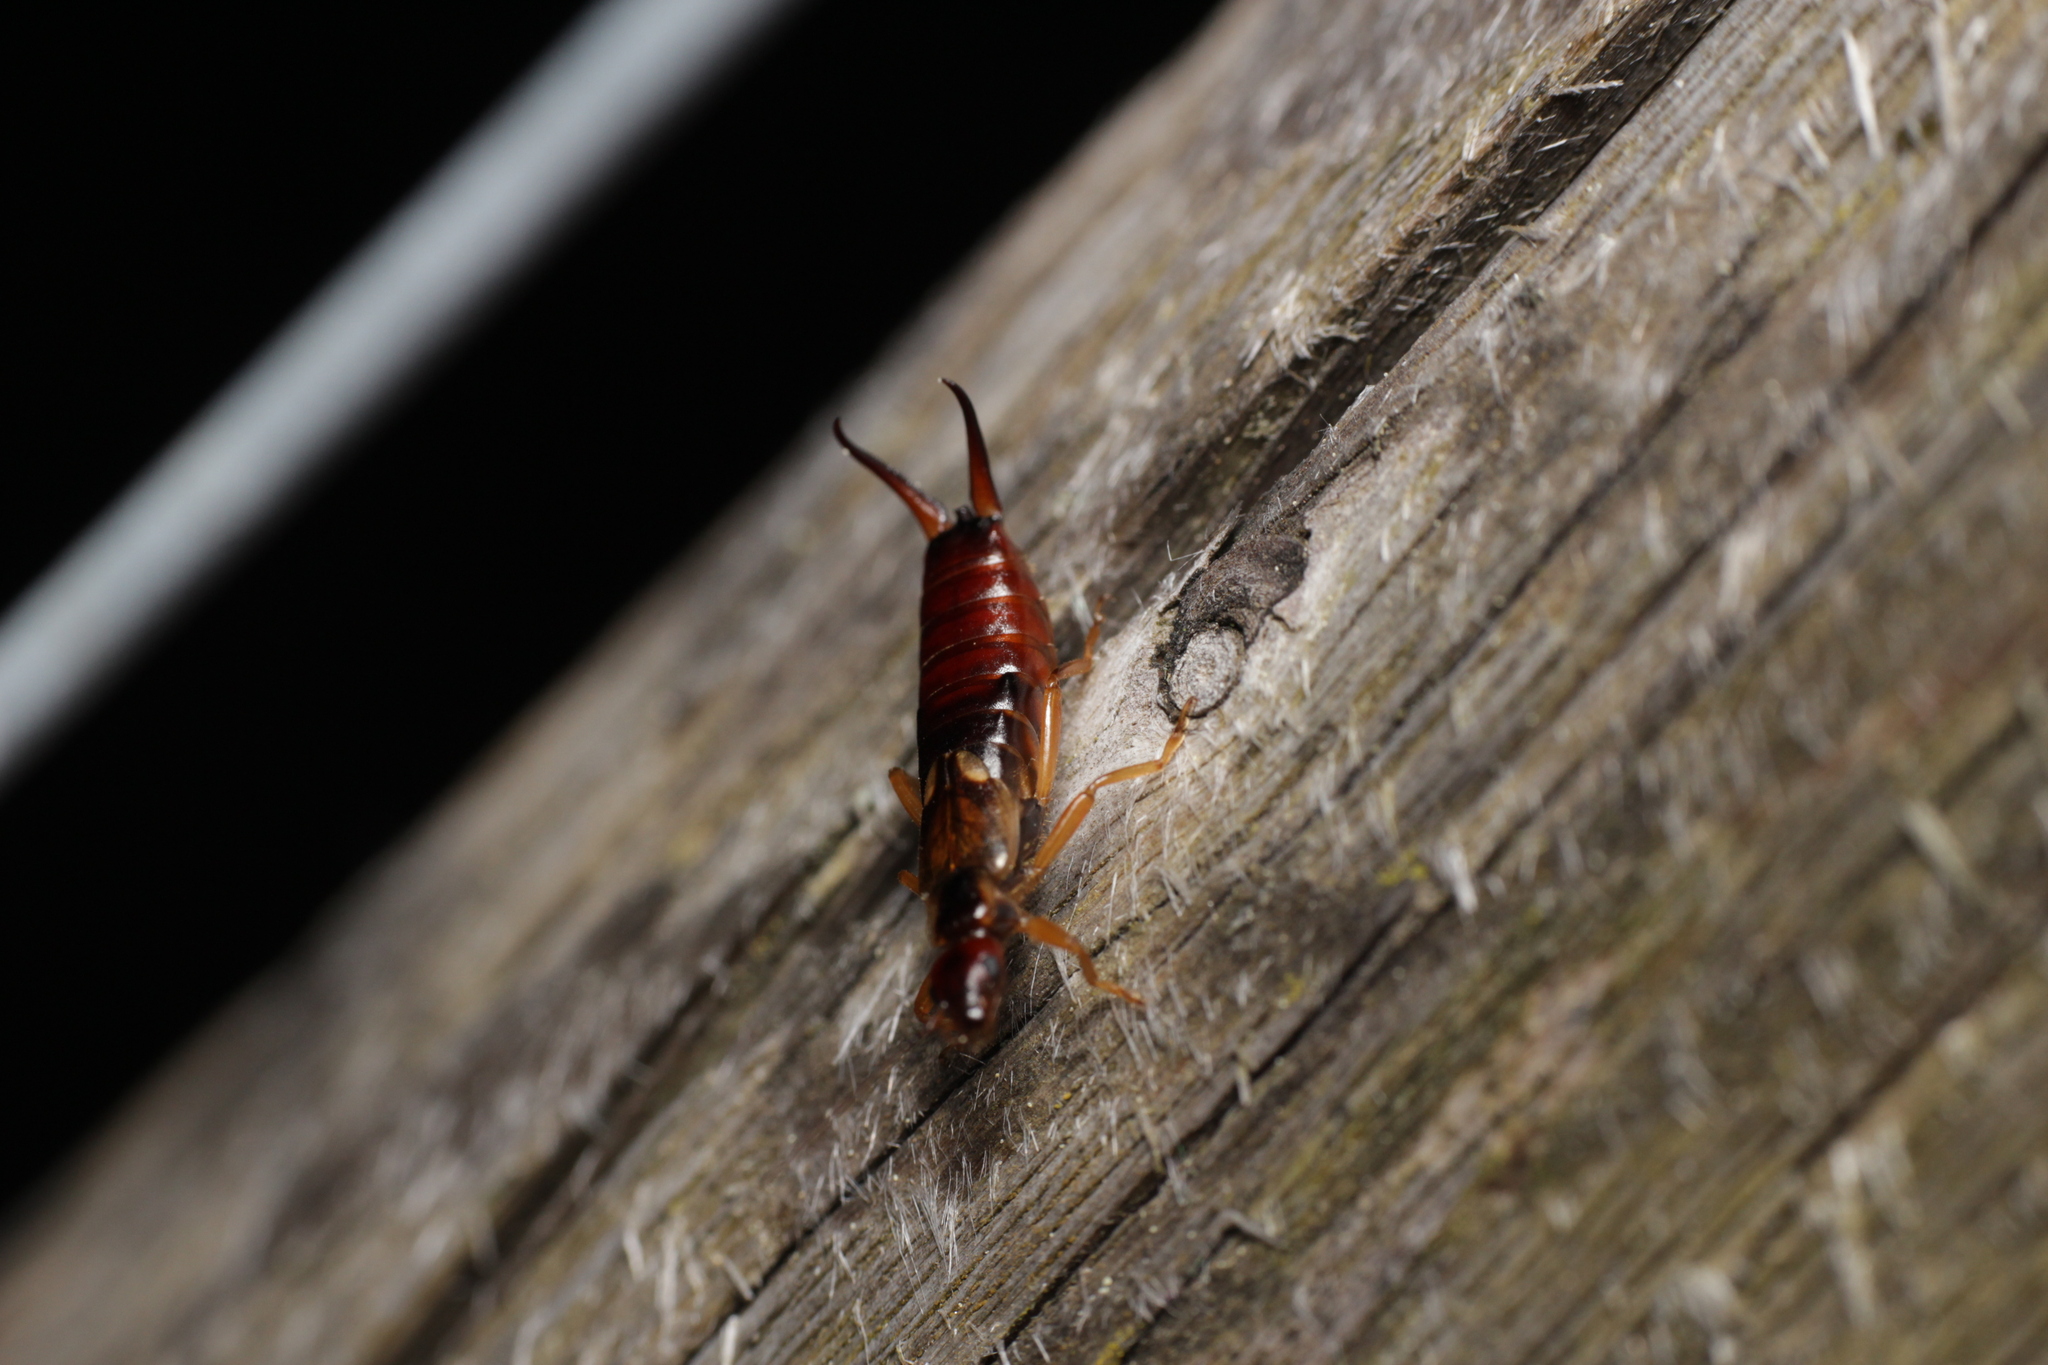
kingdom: Animalia
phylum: Arthropoda
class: Insecta
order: Dermaptera
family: Forficulidae
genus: Forficula
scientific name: Forficula
